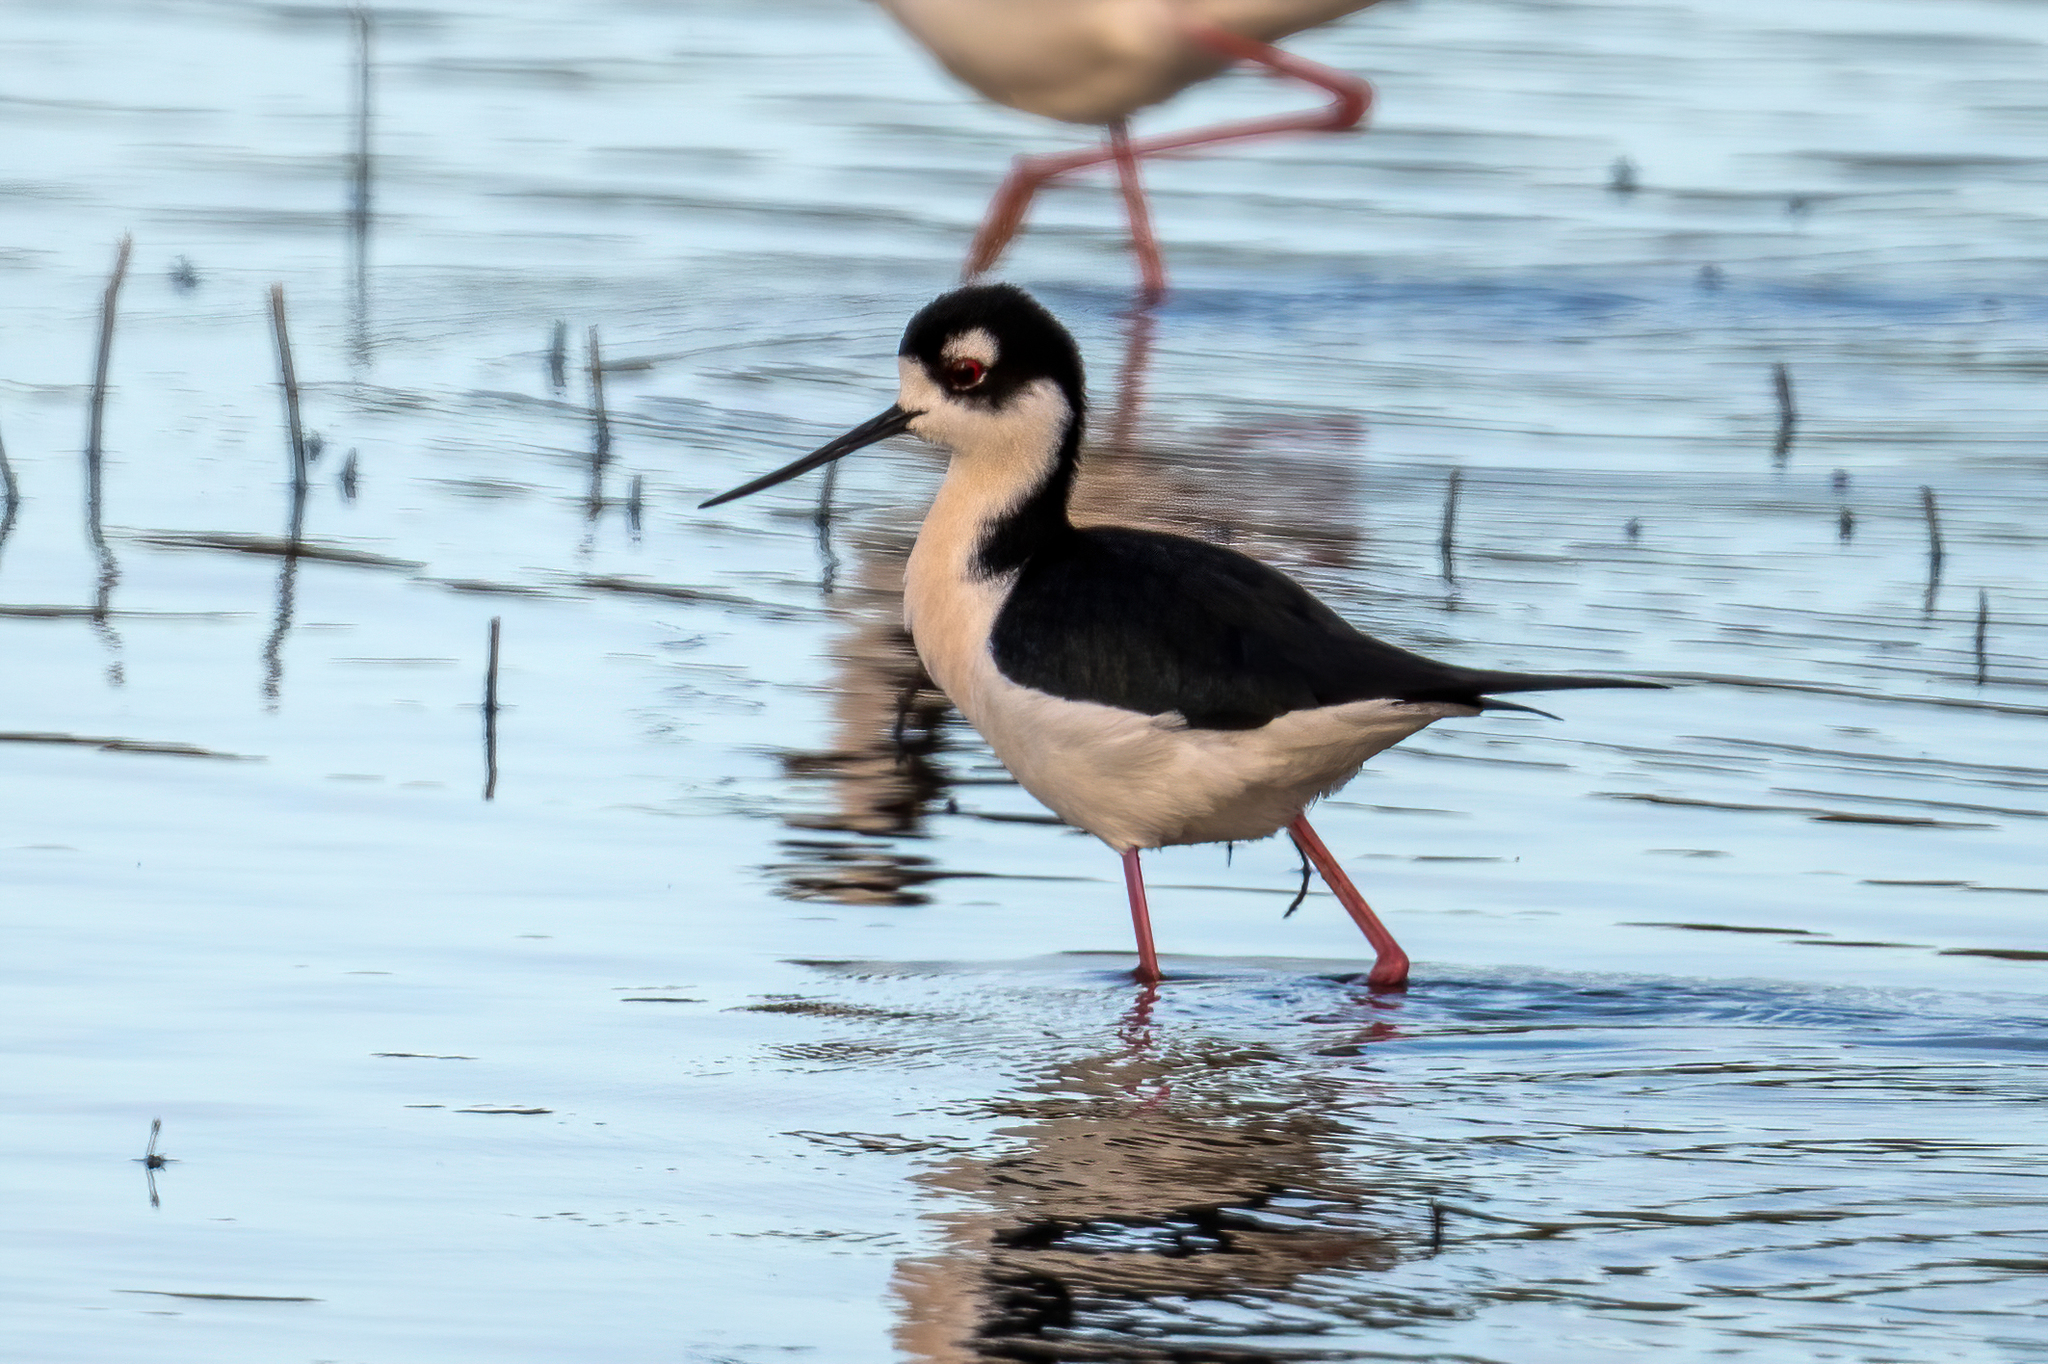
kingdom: Animalia
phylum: Chordata
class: Aves
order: Charadriiformes
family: Recurvirostridae
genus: Himantopus
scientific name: Himantopus mexicanus
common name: Black-necked stilt
